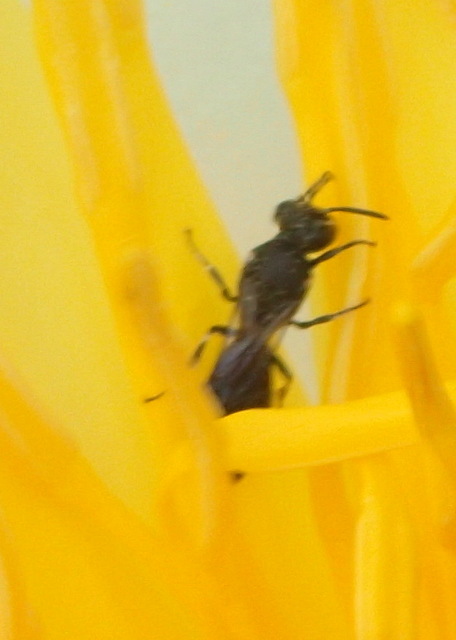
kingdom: Animalia
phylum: Arthropoda
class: Insecta
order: Hymenoptera
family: Colletidae
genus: Hylaeus
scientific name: Hylaeus schwarzii
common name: Schwarz's masked bee
